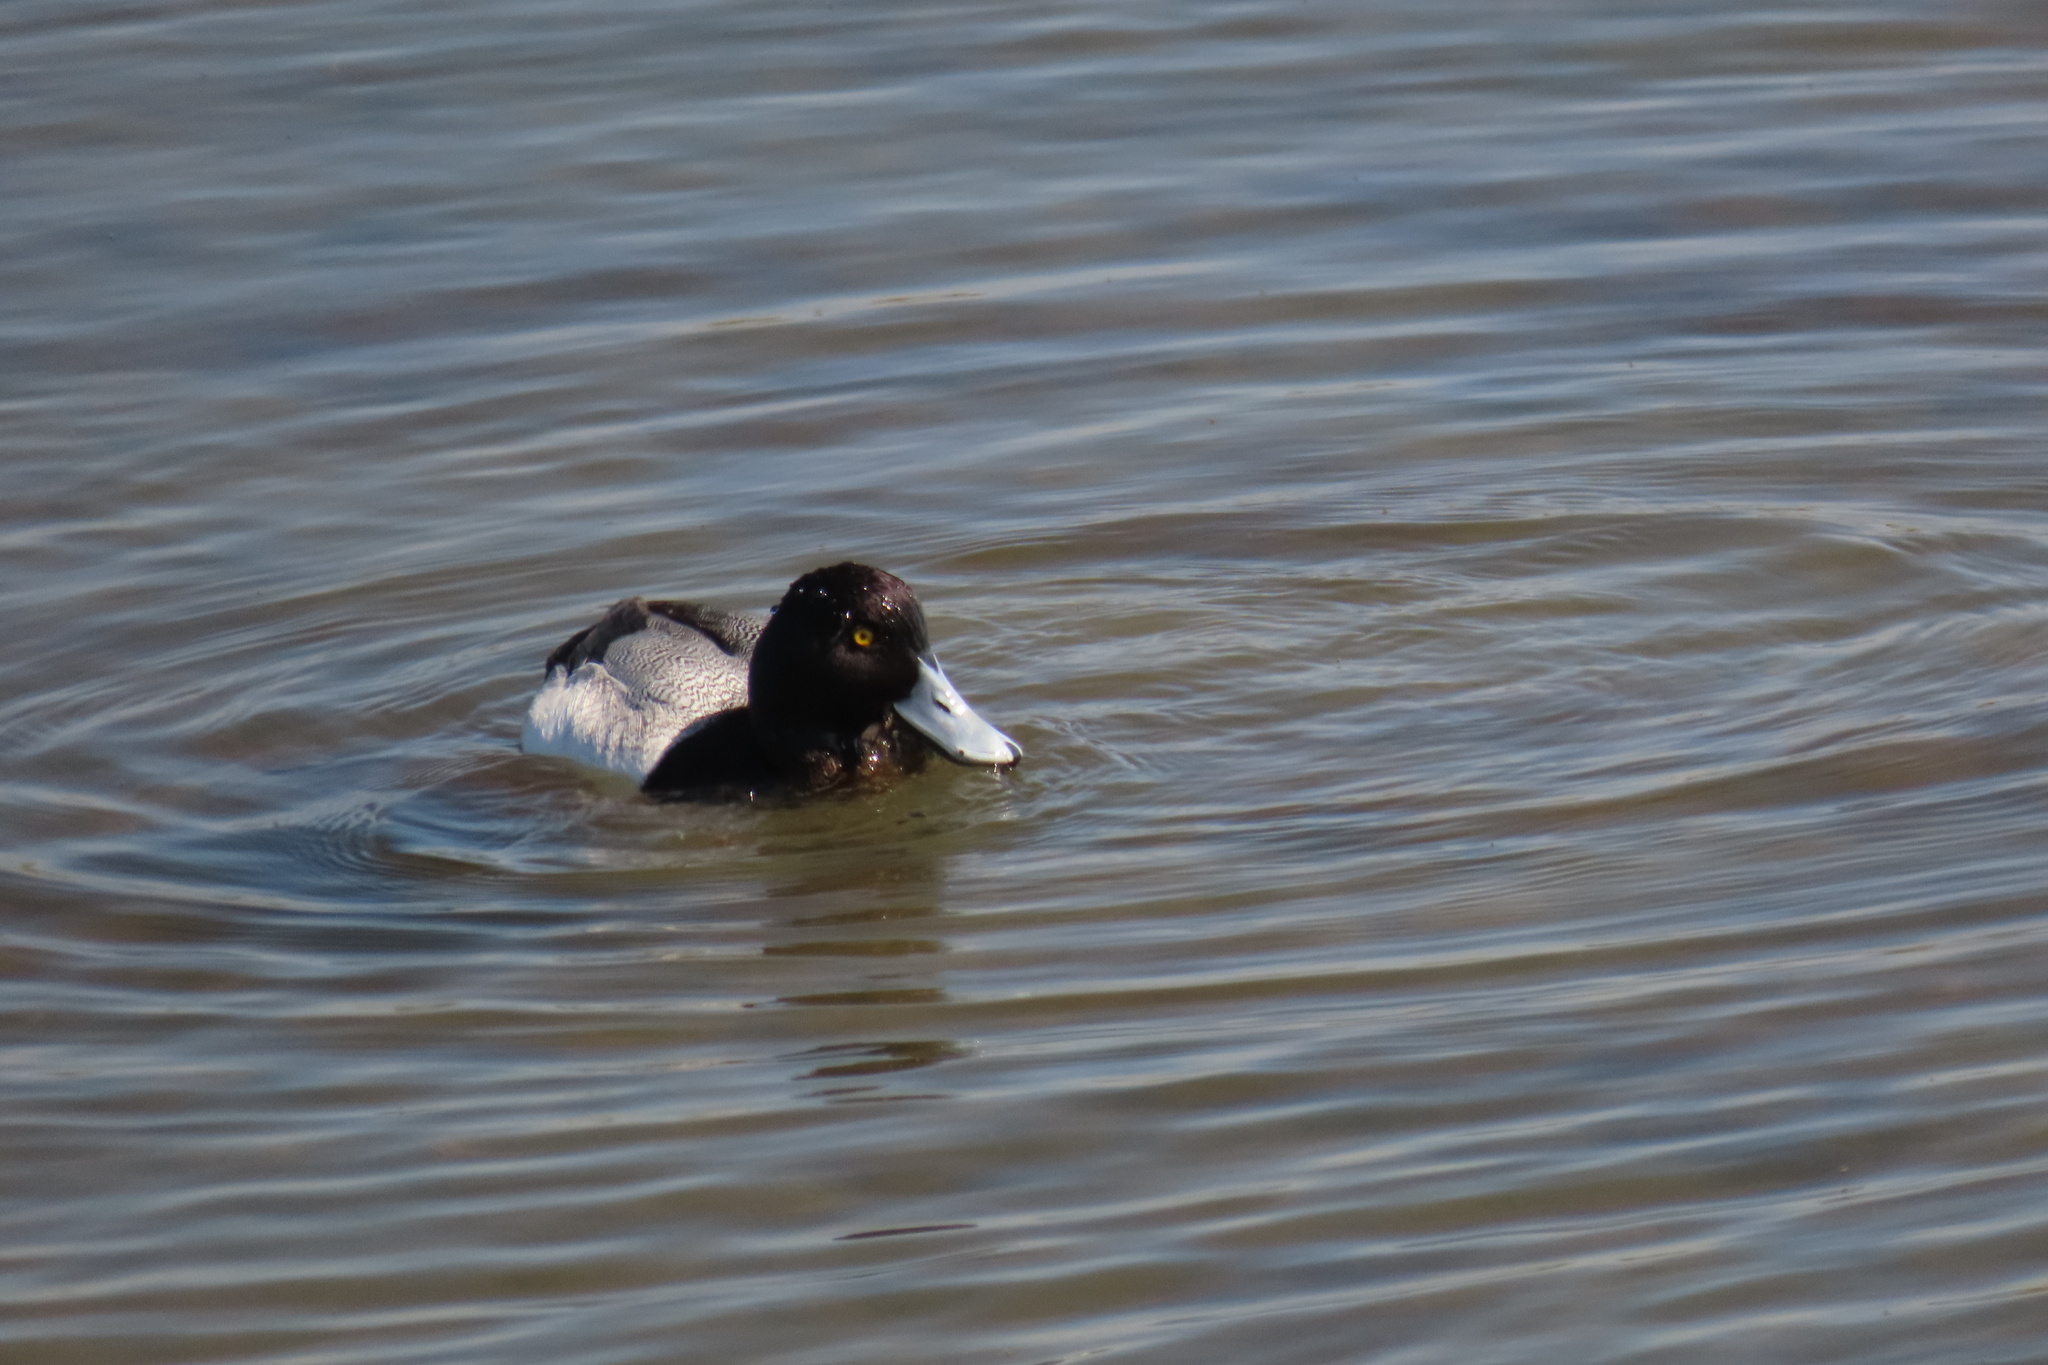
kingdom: Animalia
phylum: Chordata
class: Aves
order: Anseriformes
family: Anatidae
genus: Aythya
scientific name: Aythya affinis
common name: Lesser scaup
